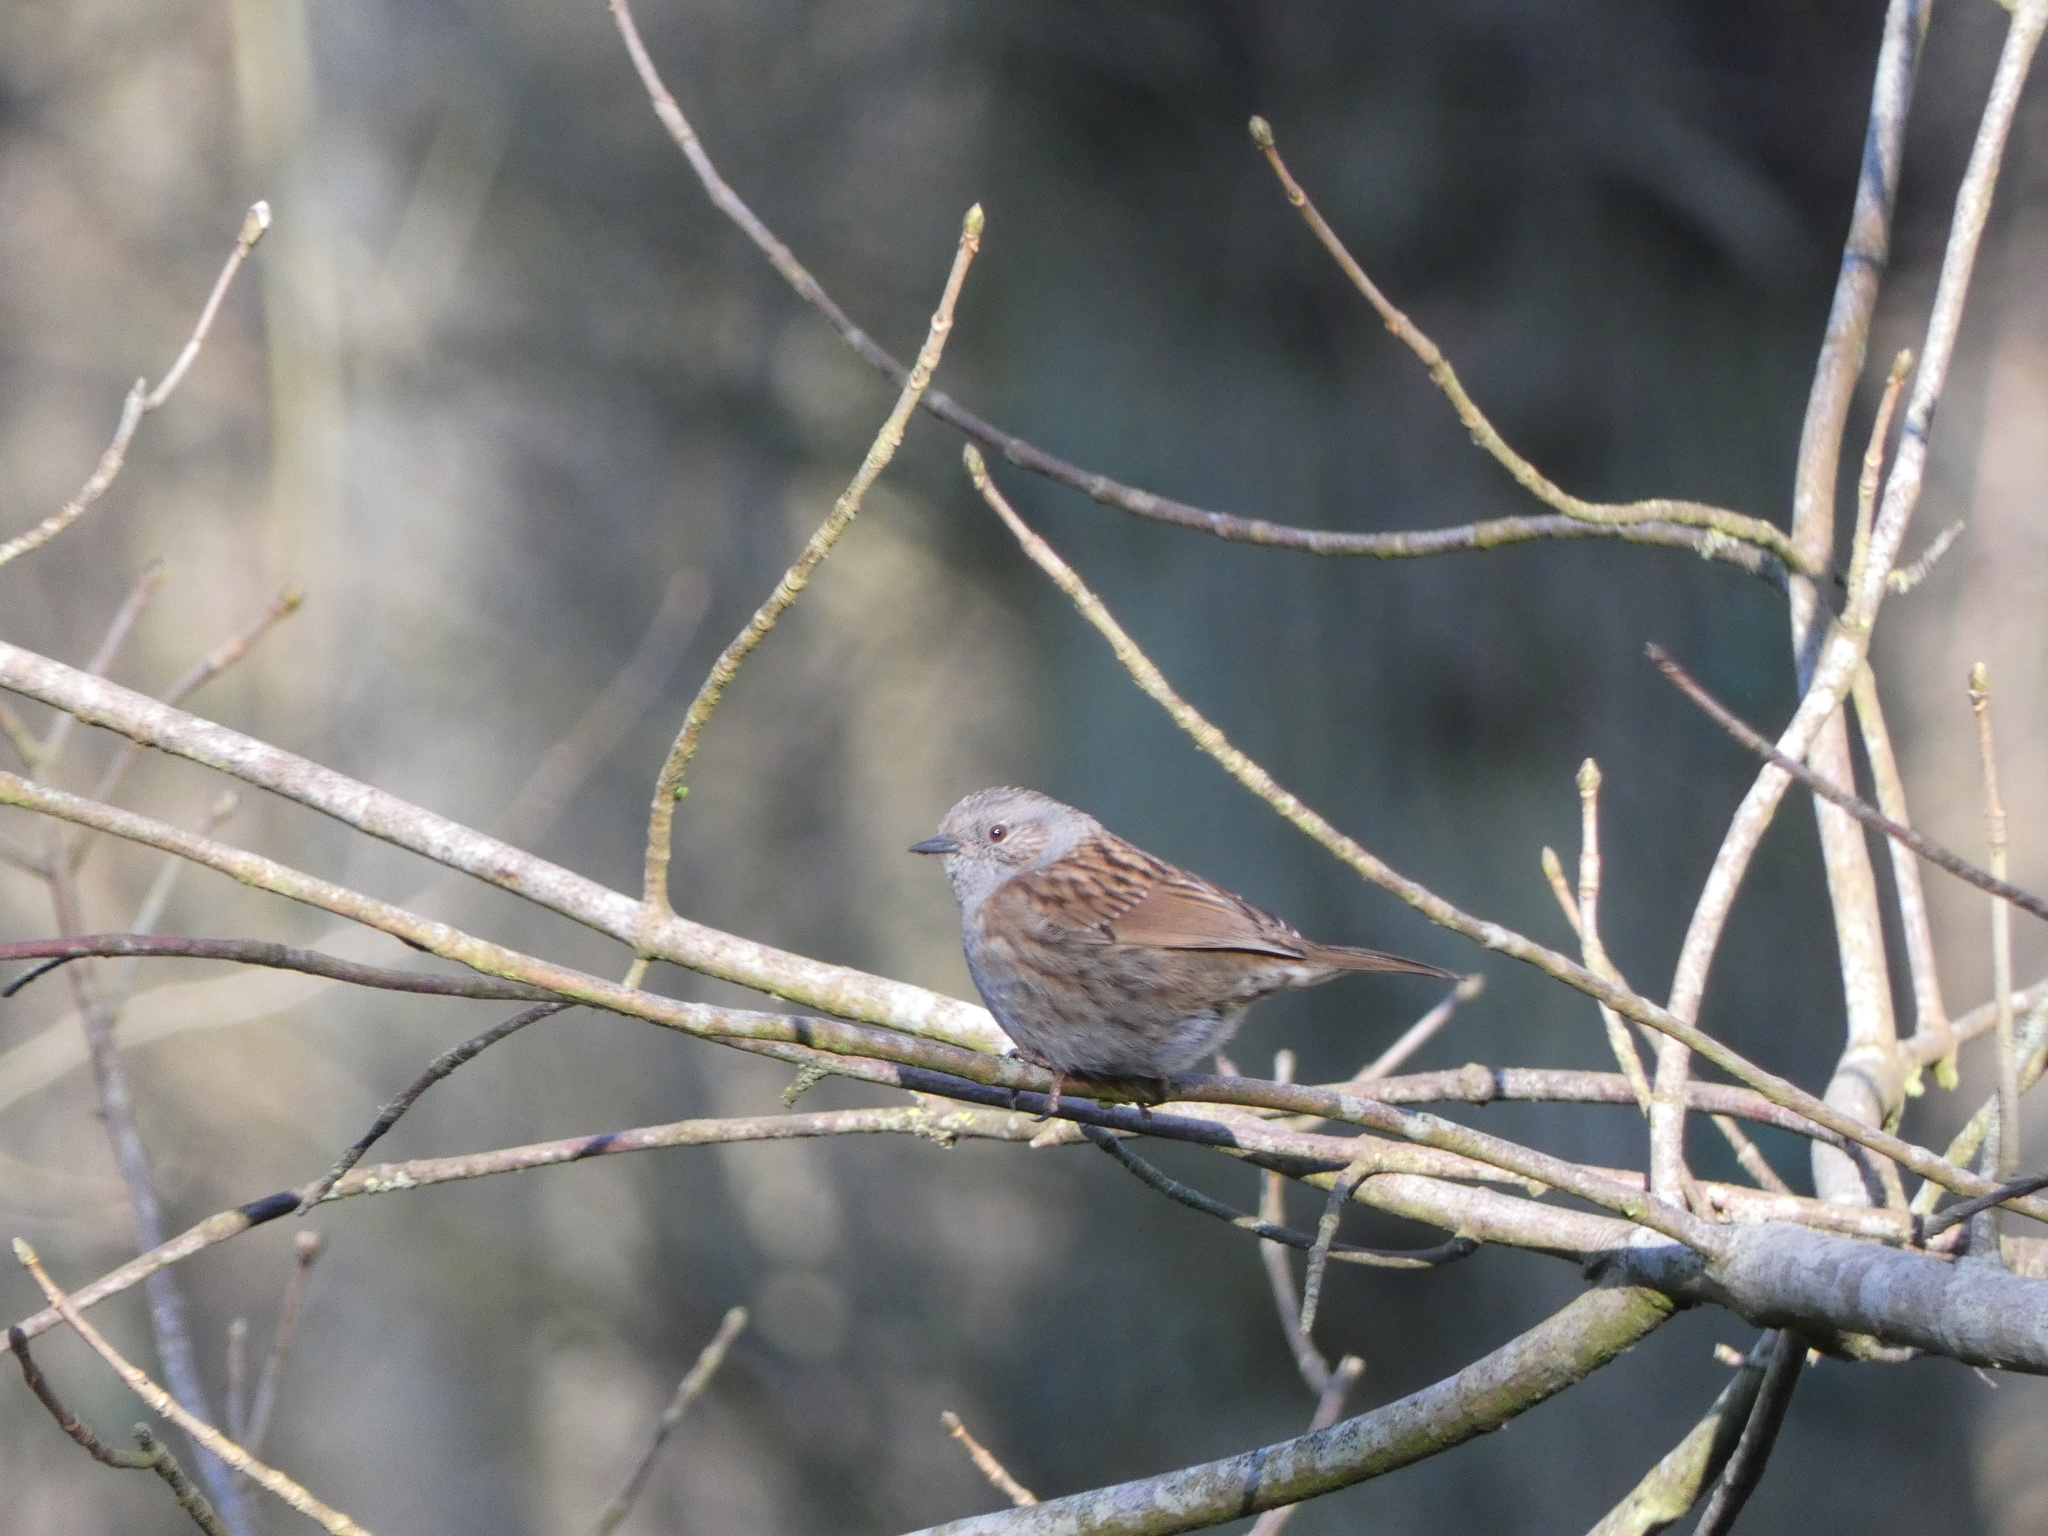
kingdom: Animalia
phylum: Chordata
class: Aves
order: Passeriformes
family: Prunellidae
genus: Prunella
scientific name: Prunella modularis
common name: Dunnock
